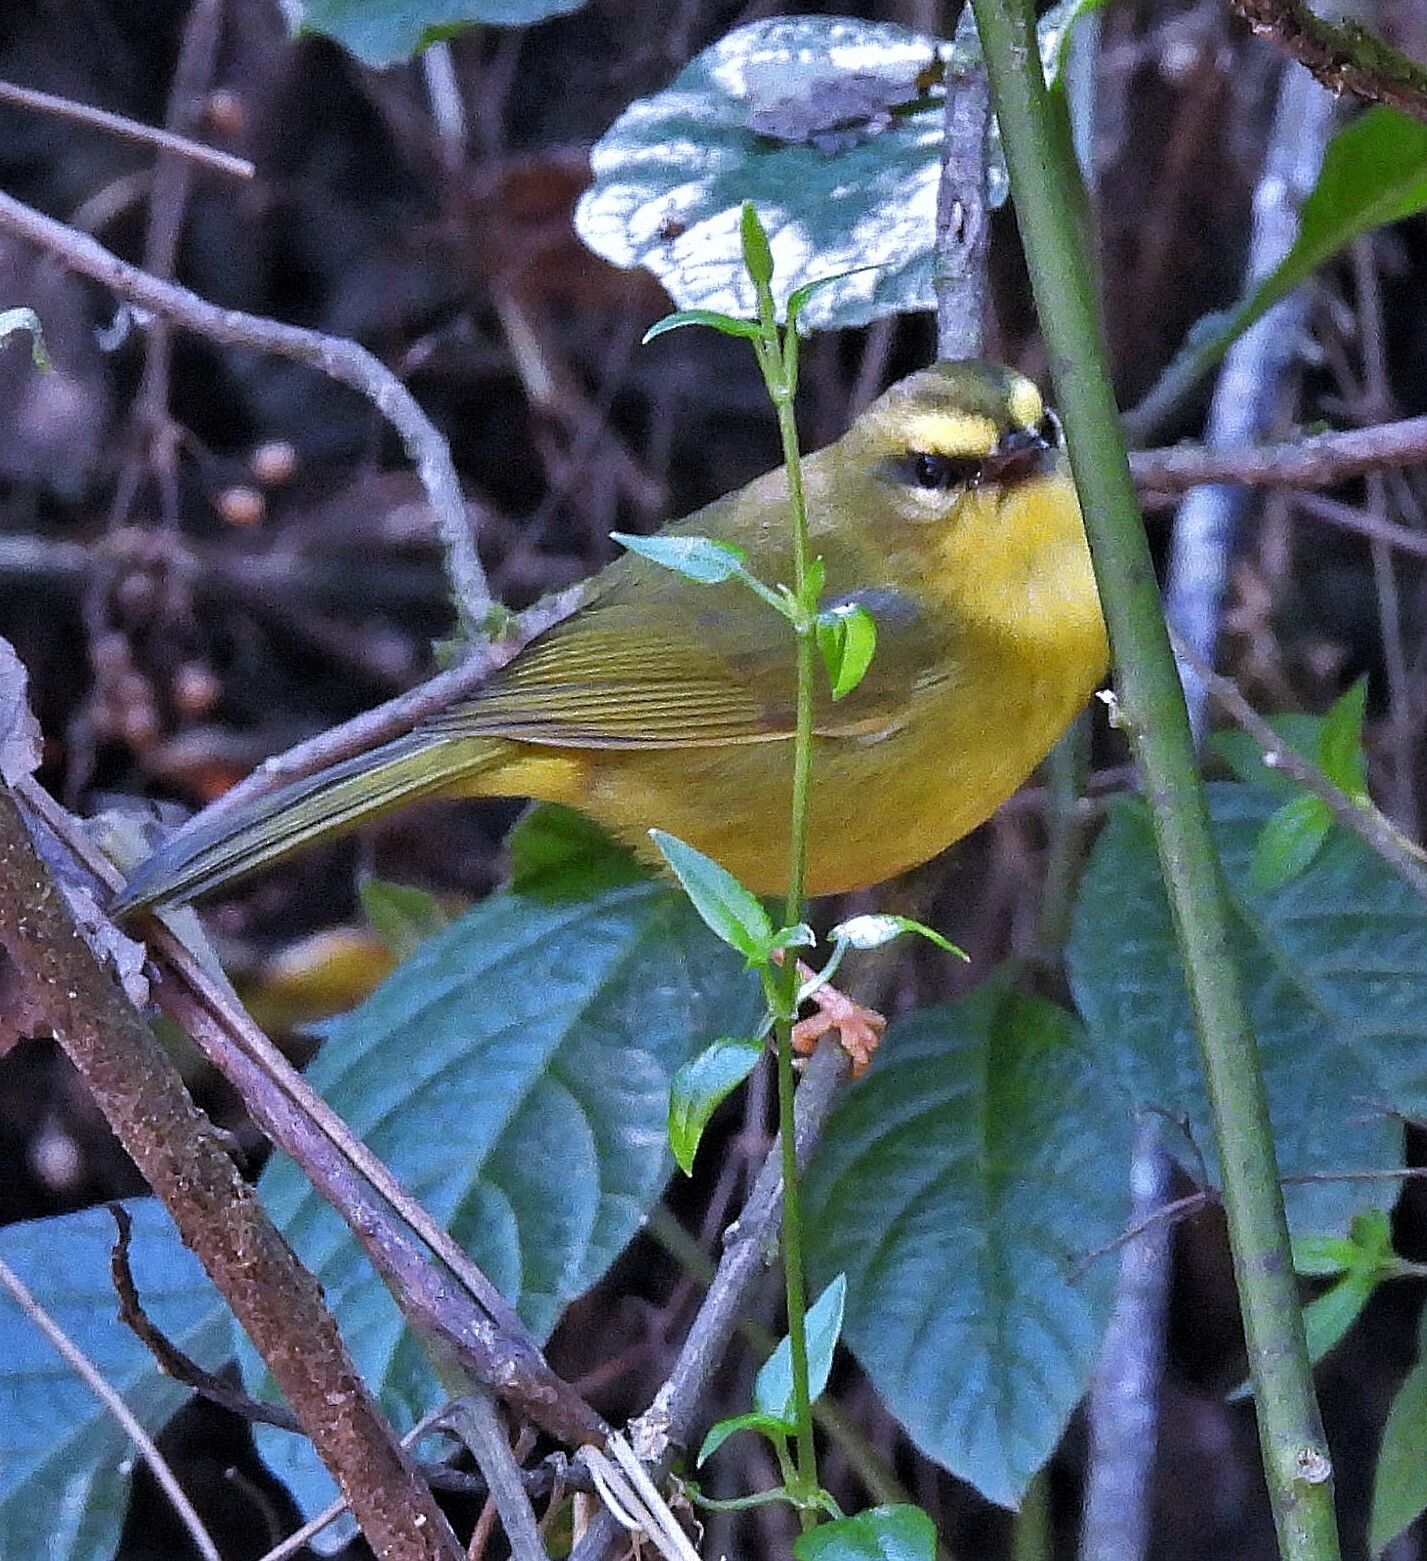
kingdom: Animalia
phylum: Chordata
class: Aves
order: Passeriformes
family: Parulidae
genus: Myiothlypis
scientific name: Myiothlypis signata
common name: Pale-legged warbler
